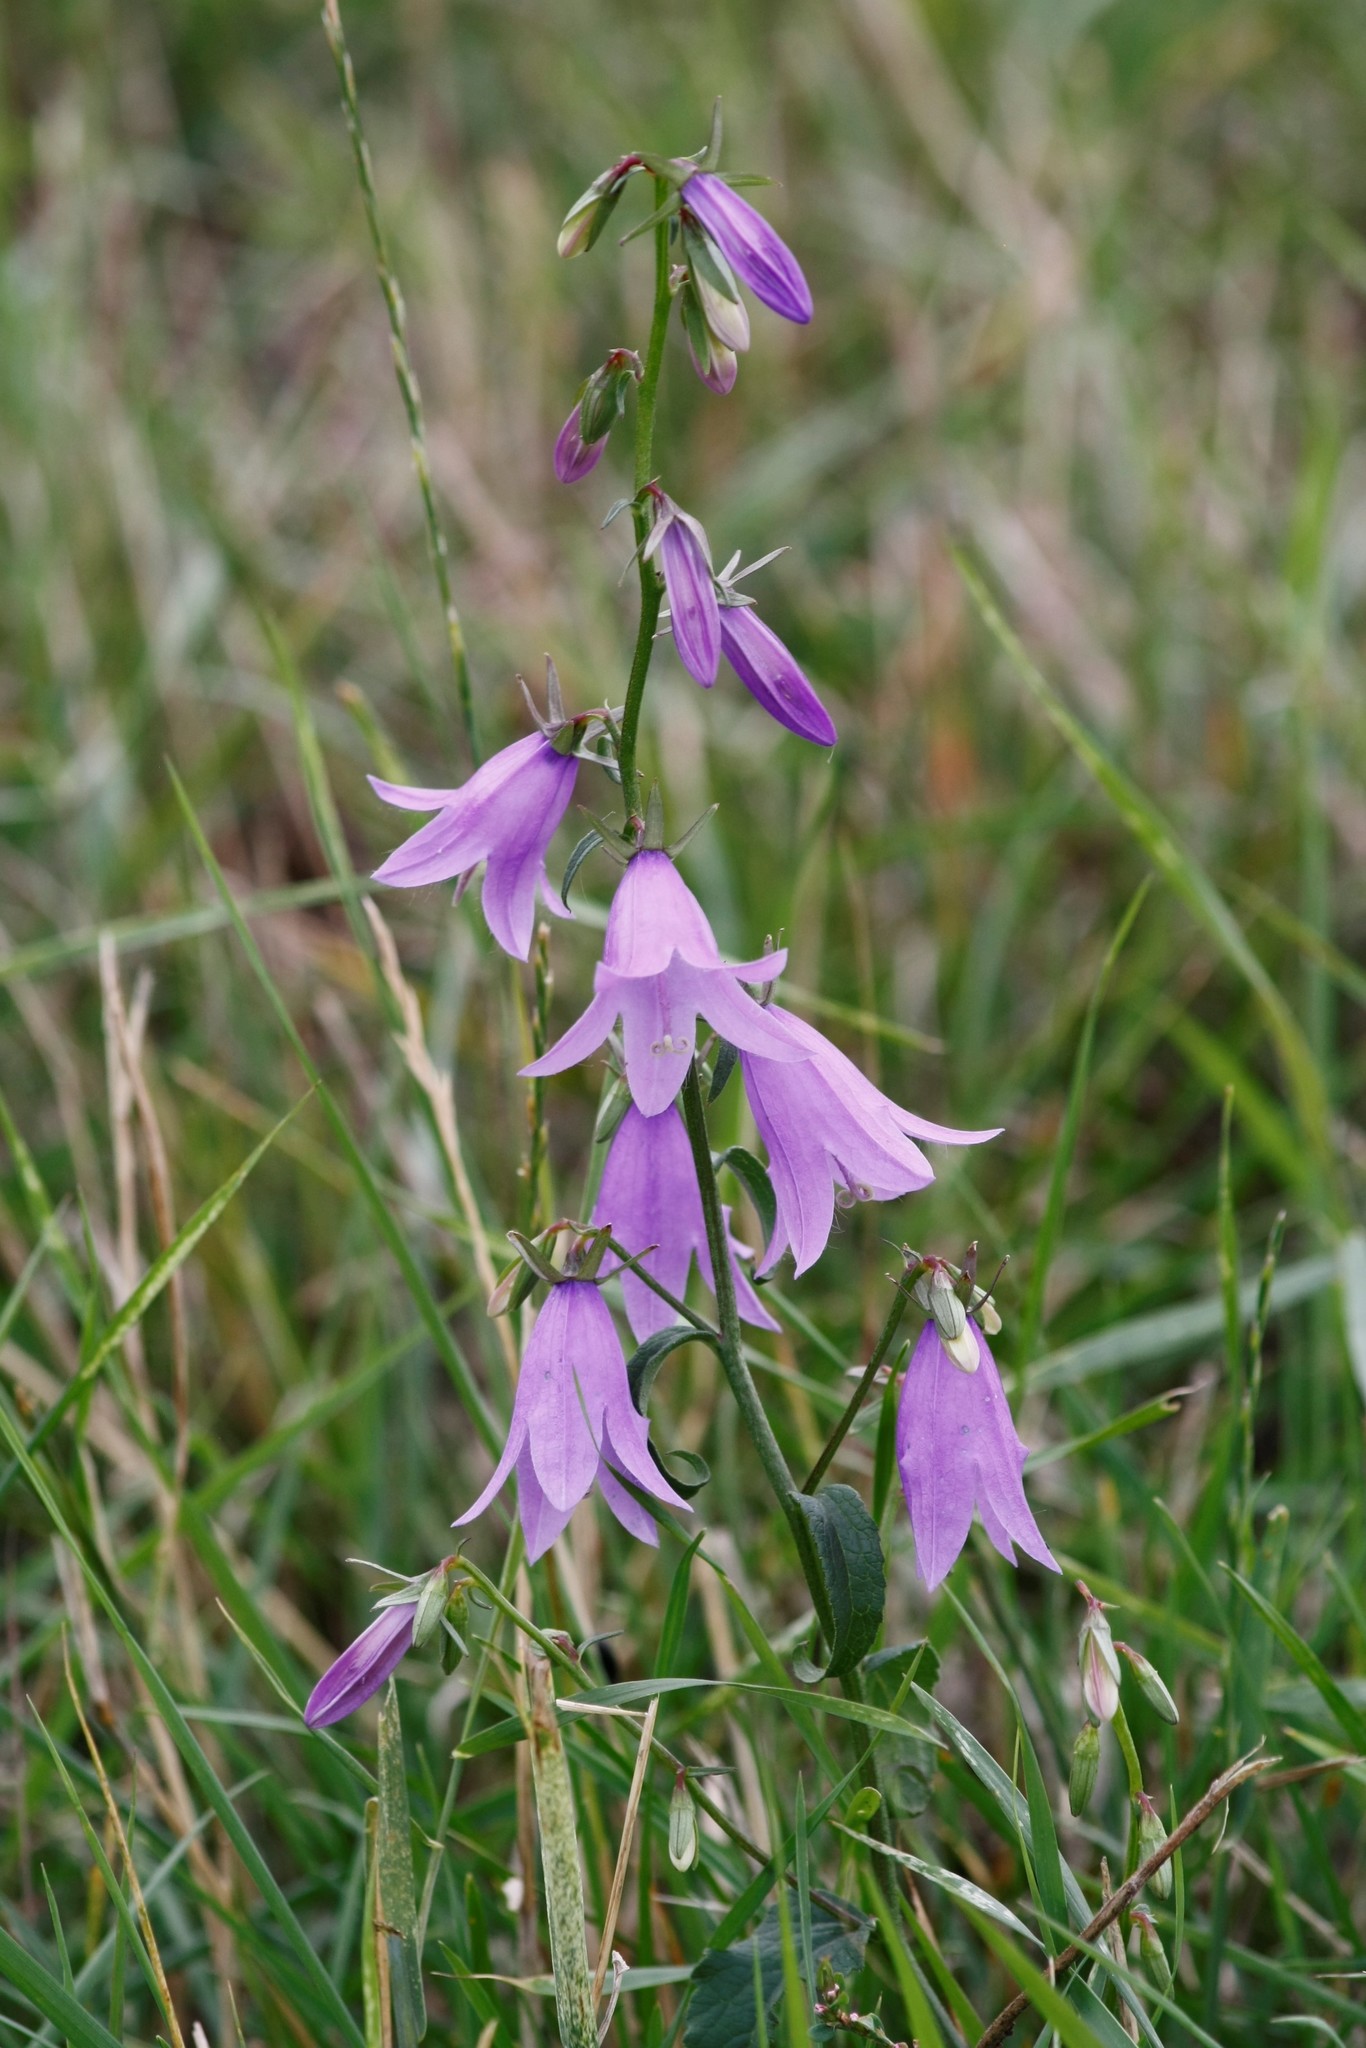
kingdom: Plantae
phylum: Tracheophyta
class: Magnoliopsida
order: Asterales
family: Campanulaceae
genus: Campanula
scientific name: Campanula rapunculoides
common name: Creeping bellflower
